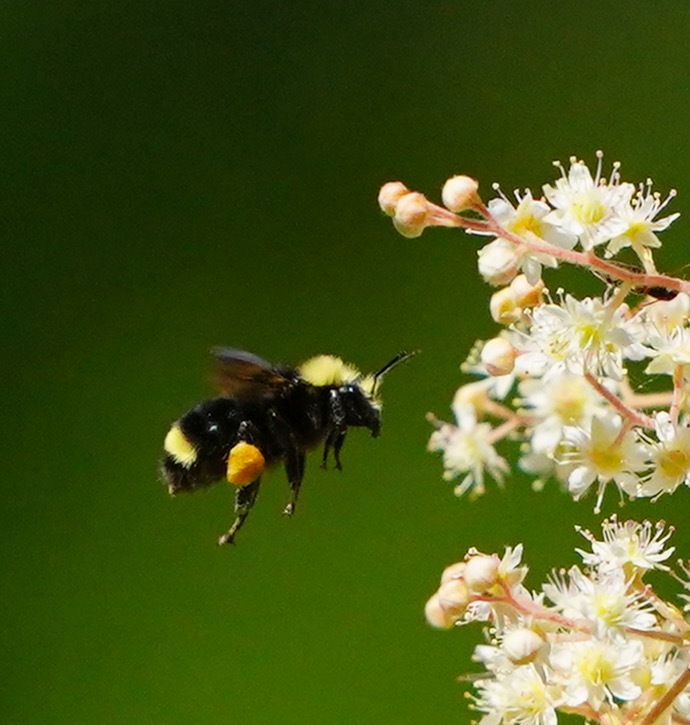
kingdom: Animalia
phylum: Arthropoda
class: Insecta
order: Hymenoptera
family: Apidae
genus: Bombus
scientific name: Bombus vosnesenskii
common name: Vosnesensky bumble bee
